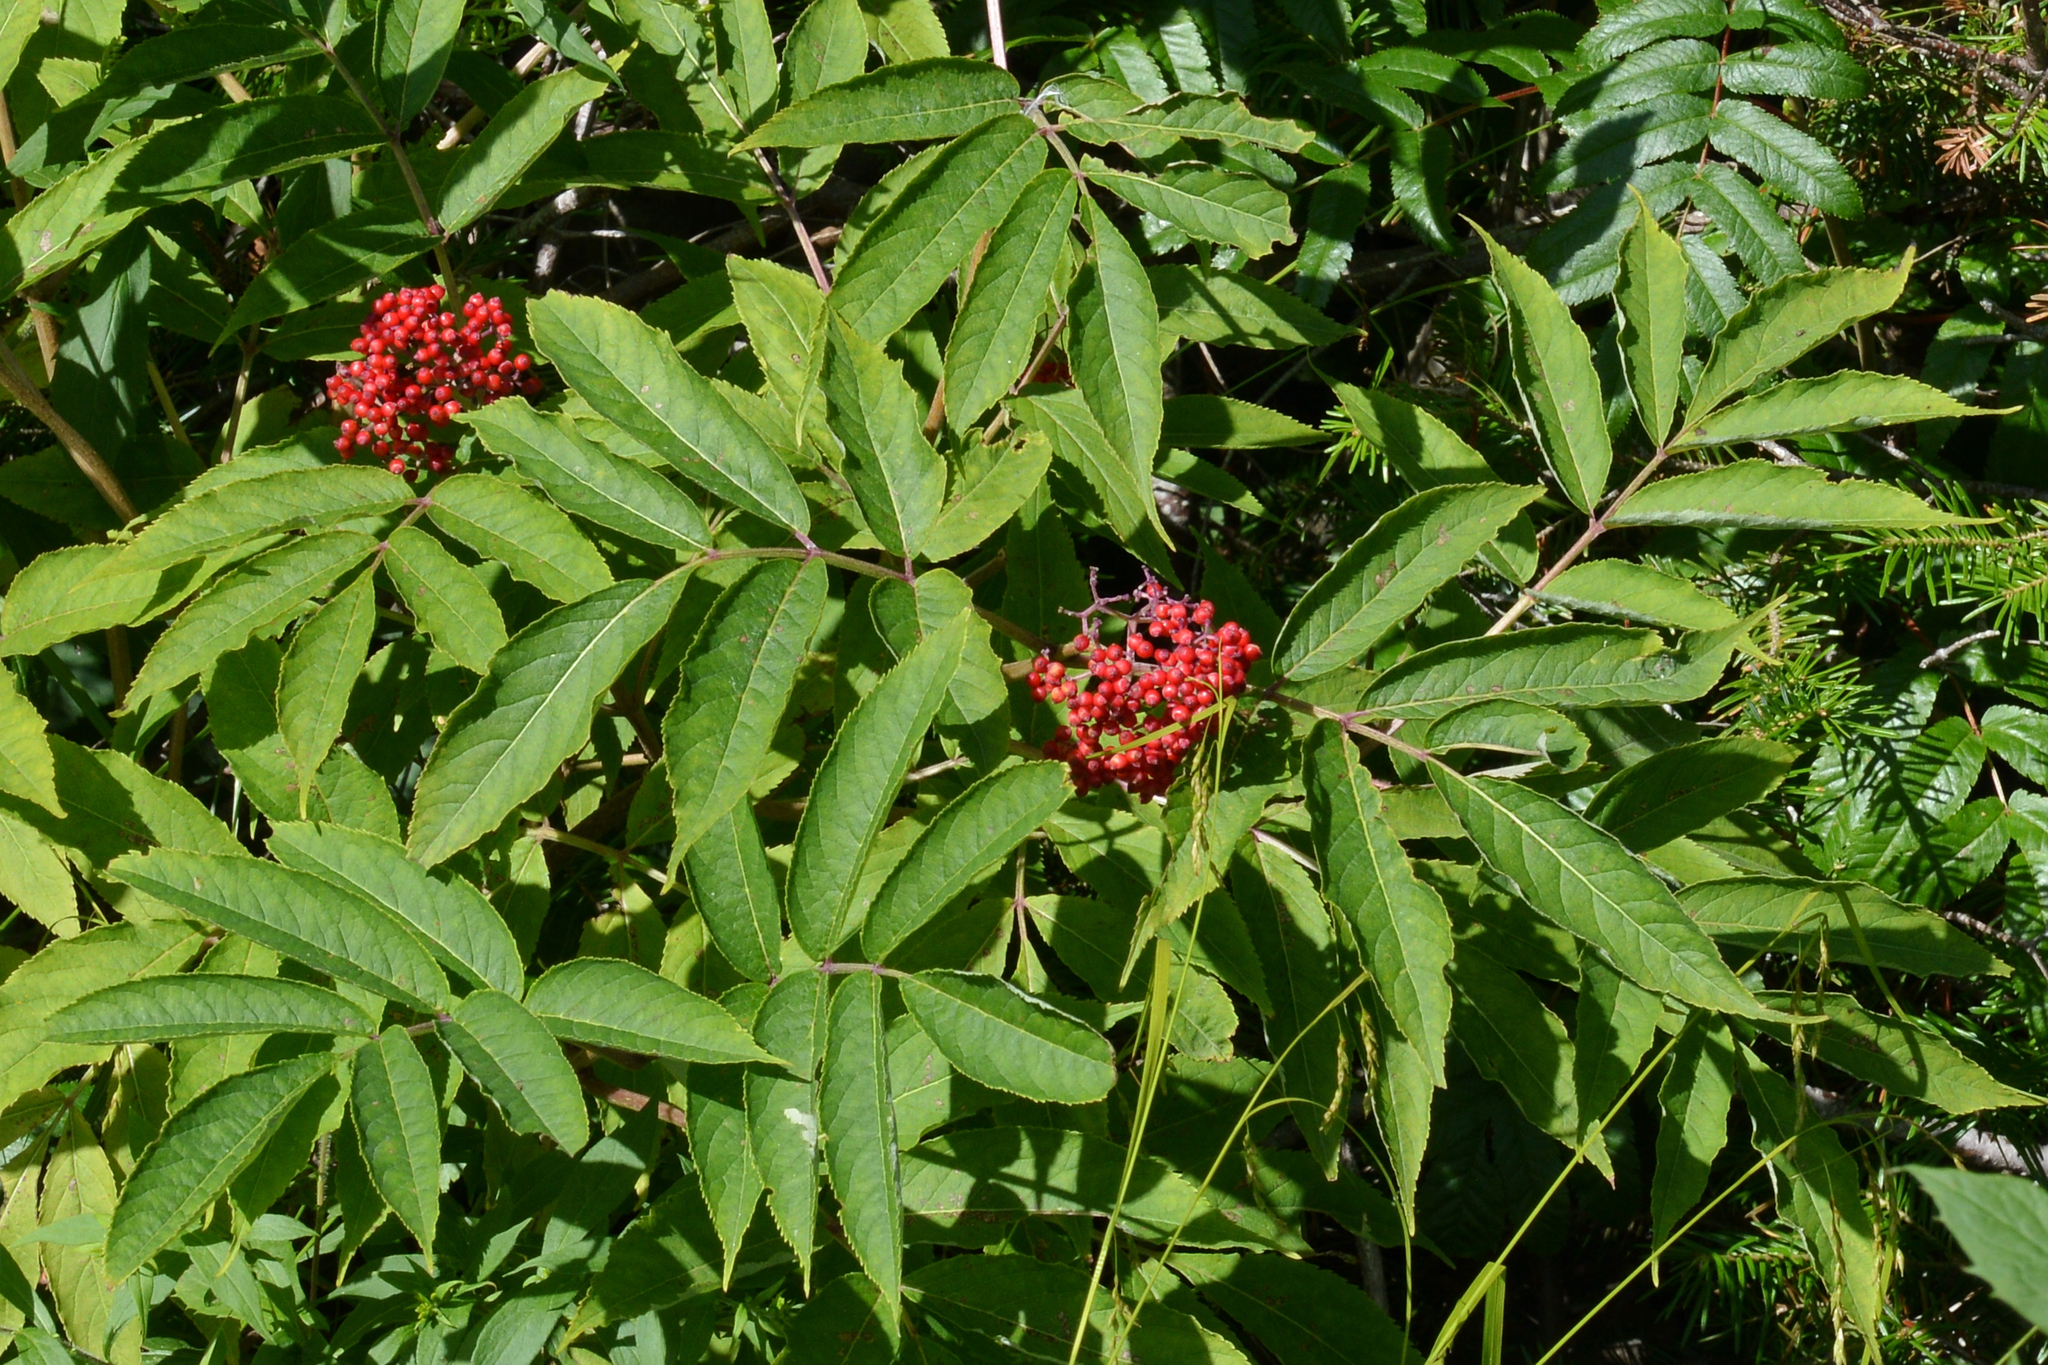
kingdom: Plantae
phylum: Tracheophyta
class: Magnoliopsida
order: Dipsacales
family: Viburnaceae
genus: Sambucus
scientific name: Sambucus racemosa
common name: Red-berried elder
